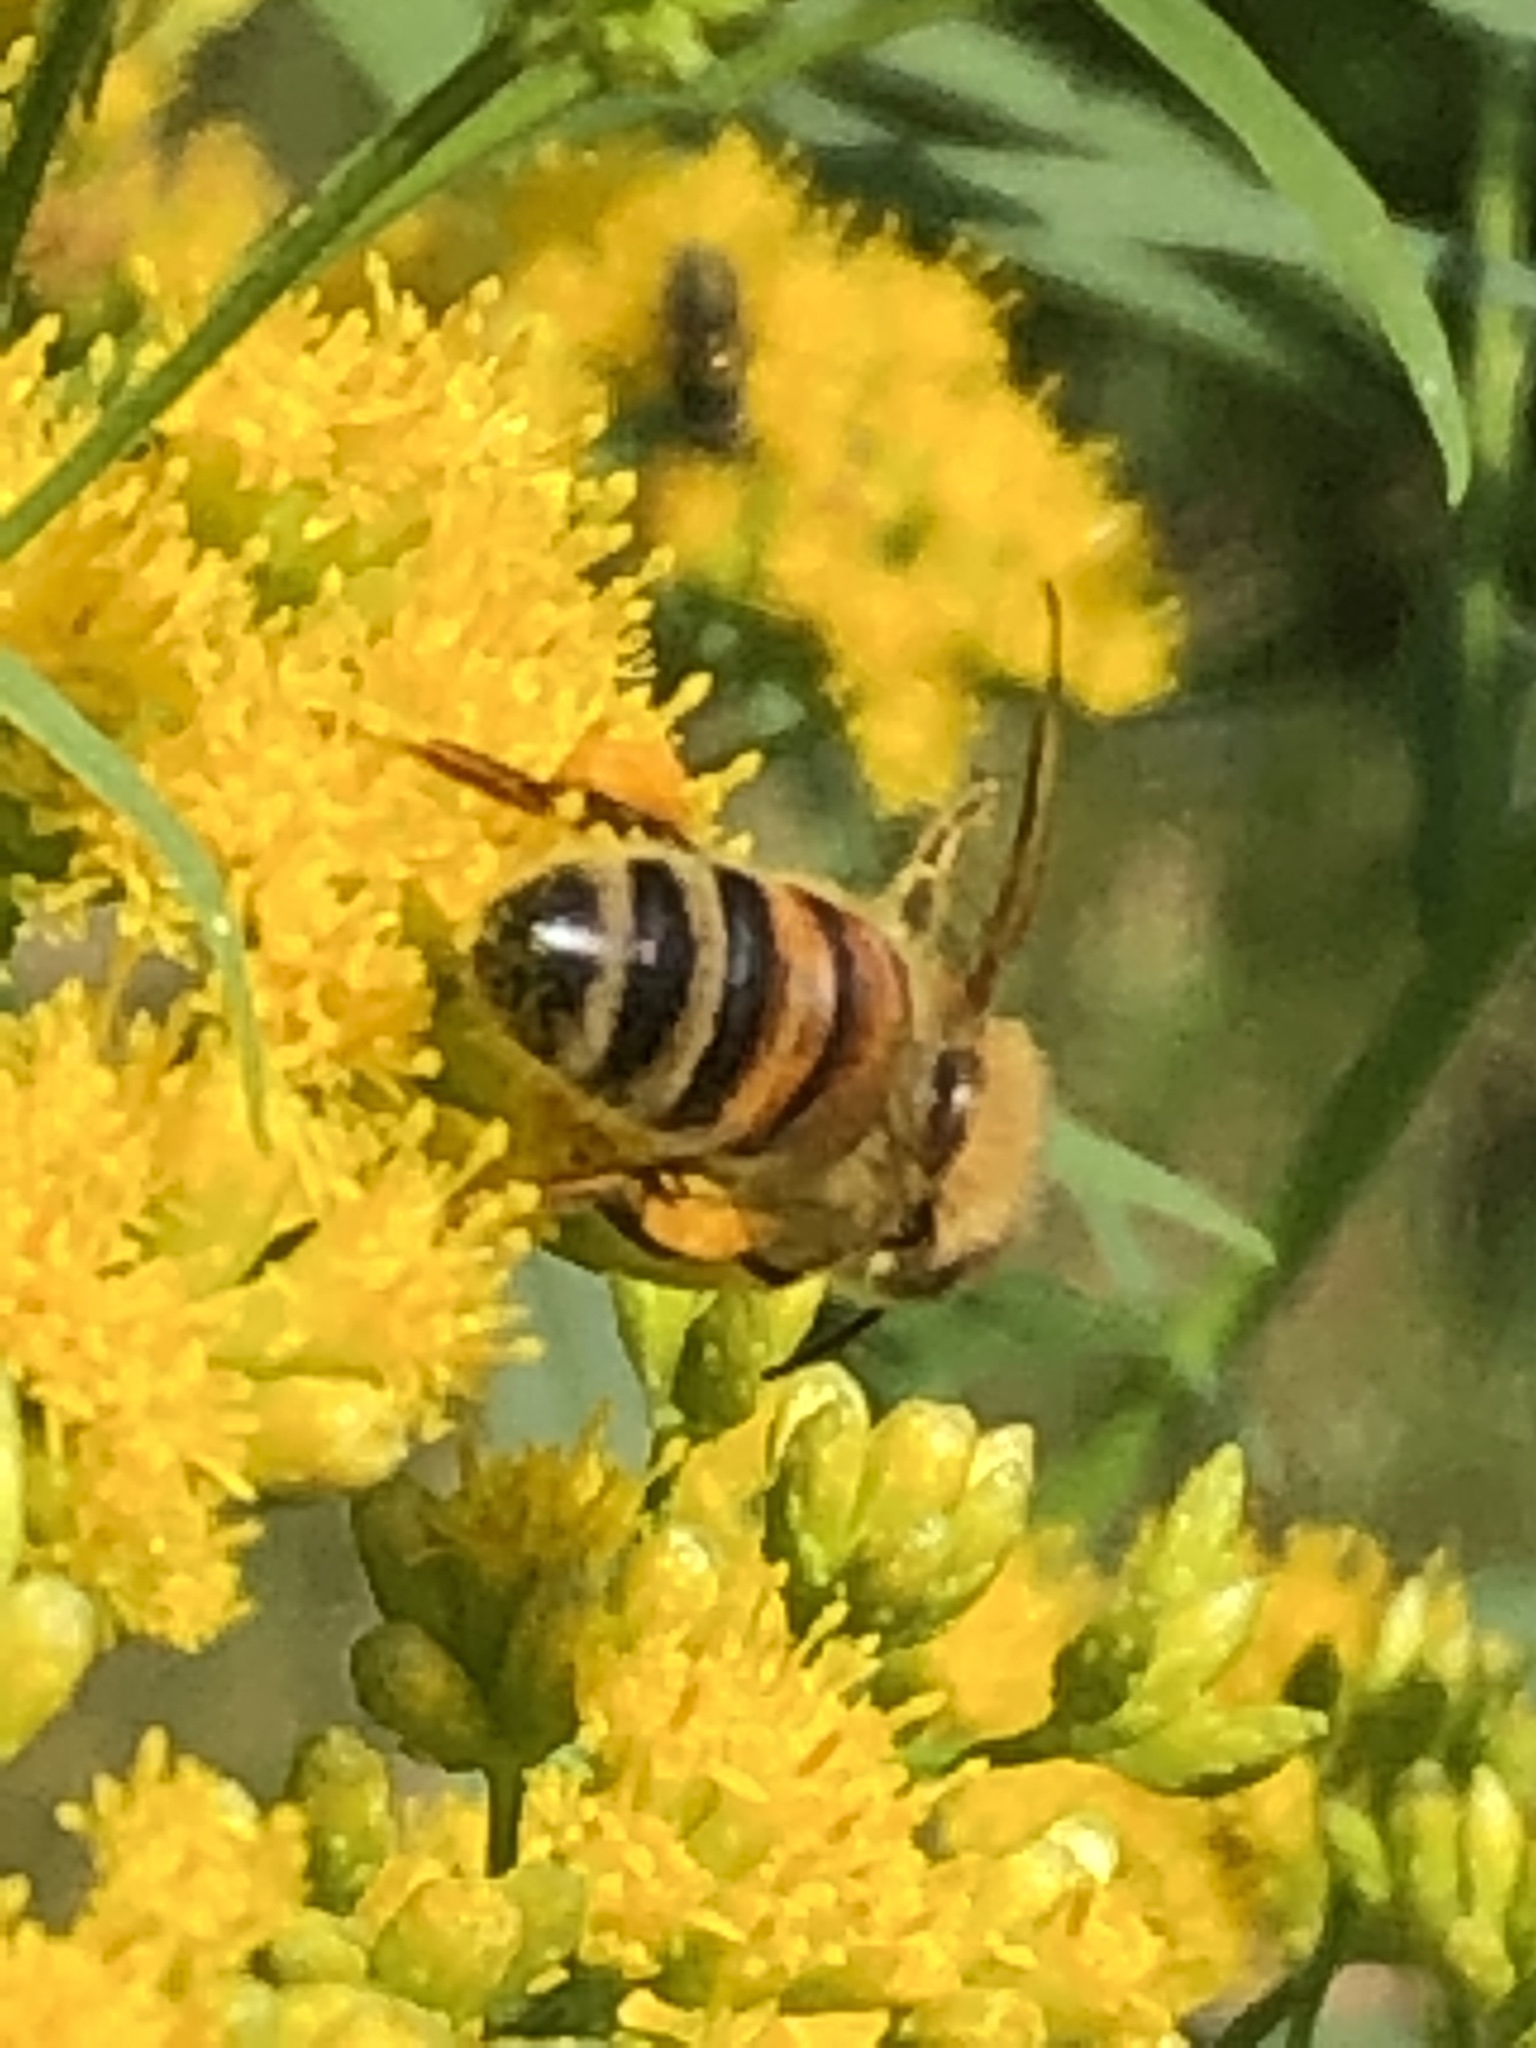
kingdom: Animalia
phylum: Arthropoda
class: Insecta
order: Hymenoptera
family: Apidae
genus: Apis
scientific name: Apis mellifera
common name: Honey bee
